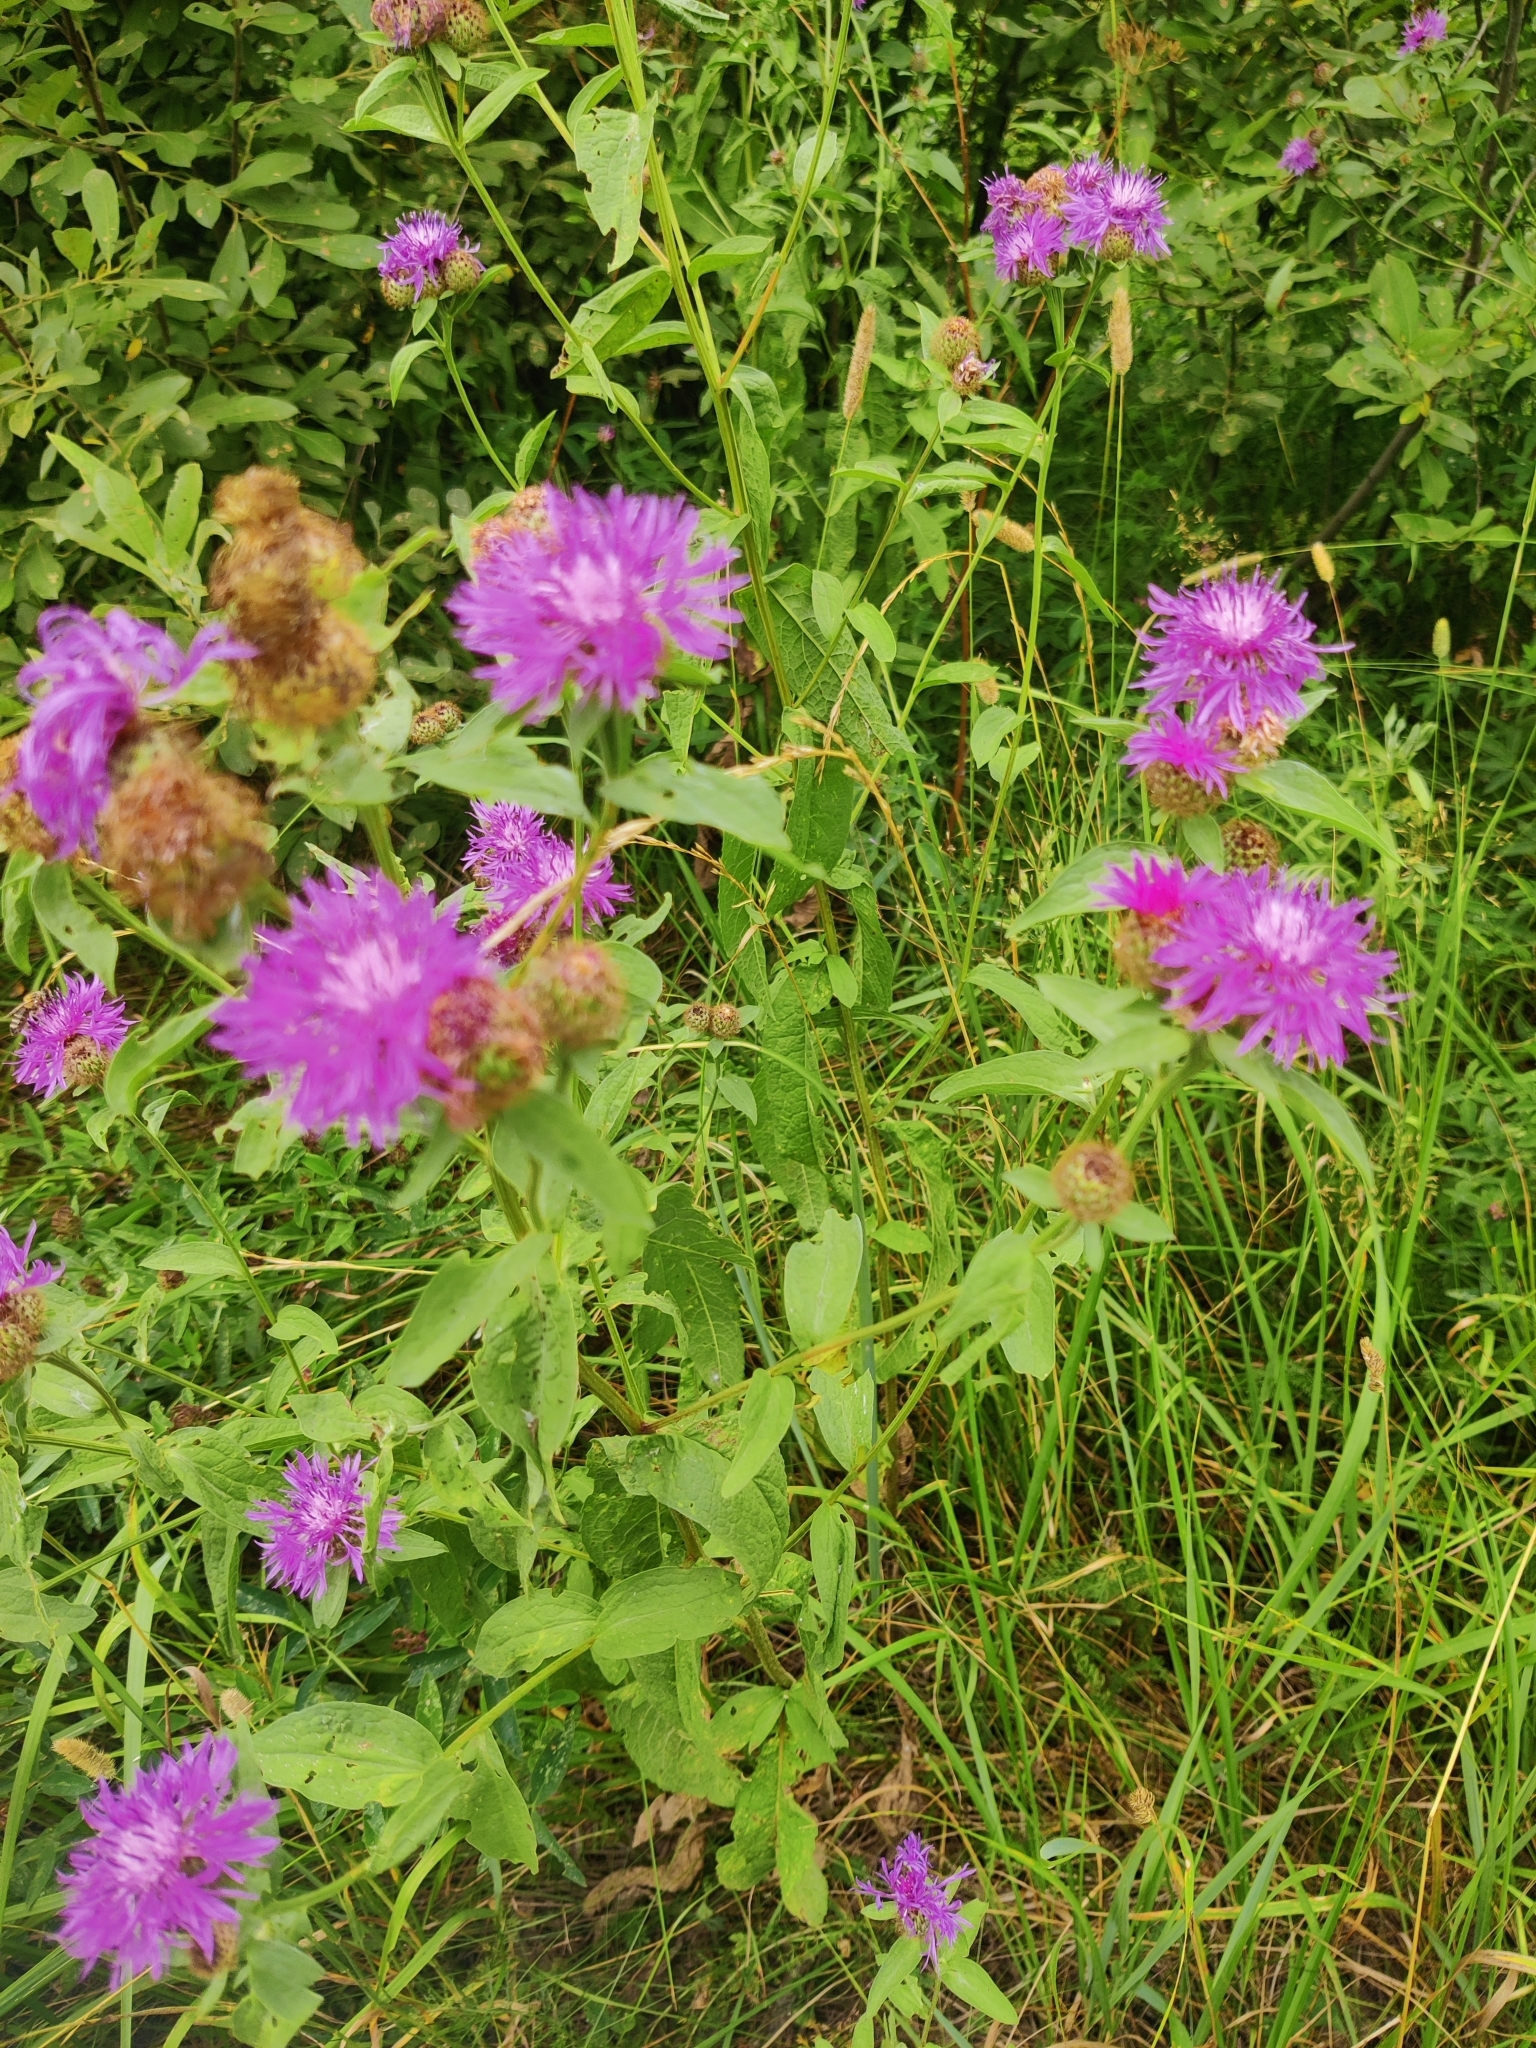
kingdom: Plantae
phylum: Tracheophyta
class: Magnoliopsida
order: Asterales
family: Asteraceae
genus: Centaurea
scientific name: Centaurea pseudophrygia
